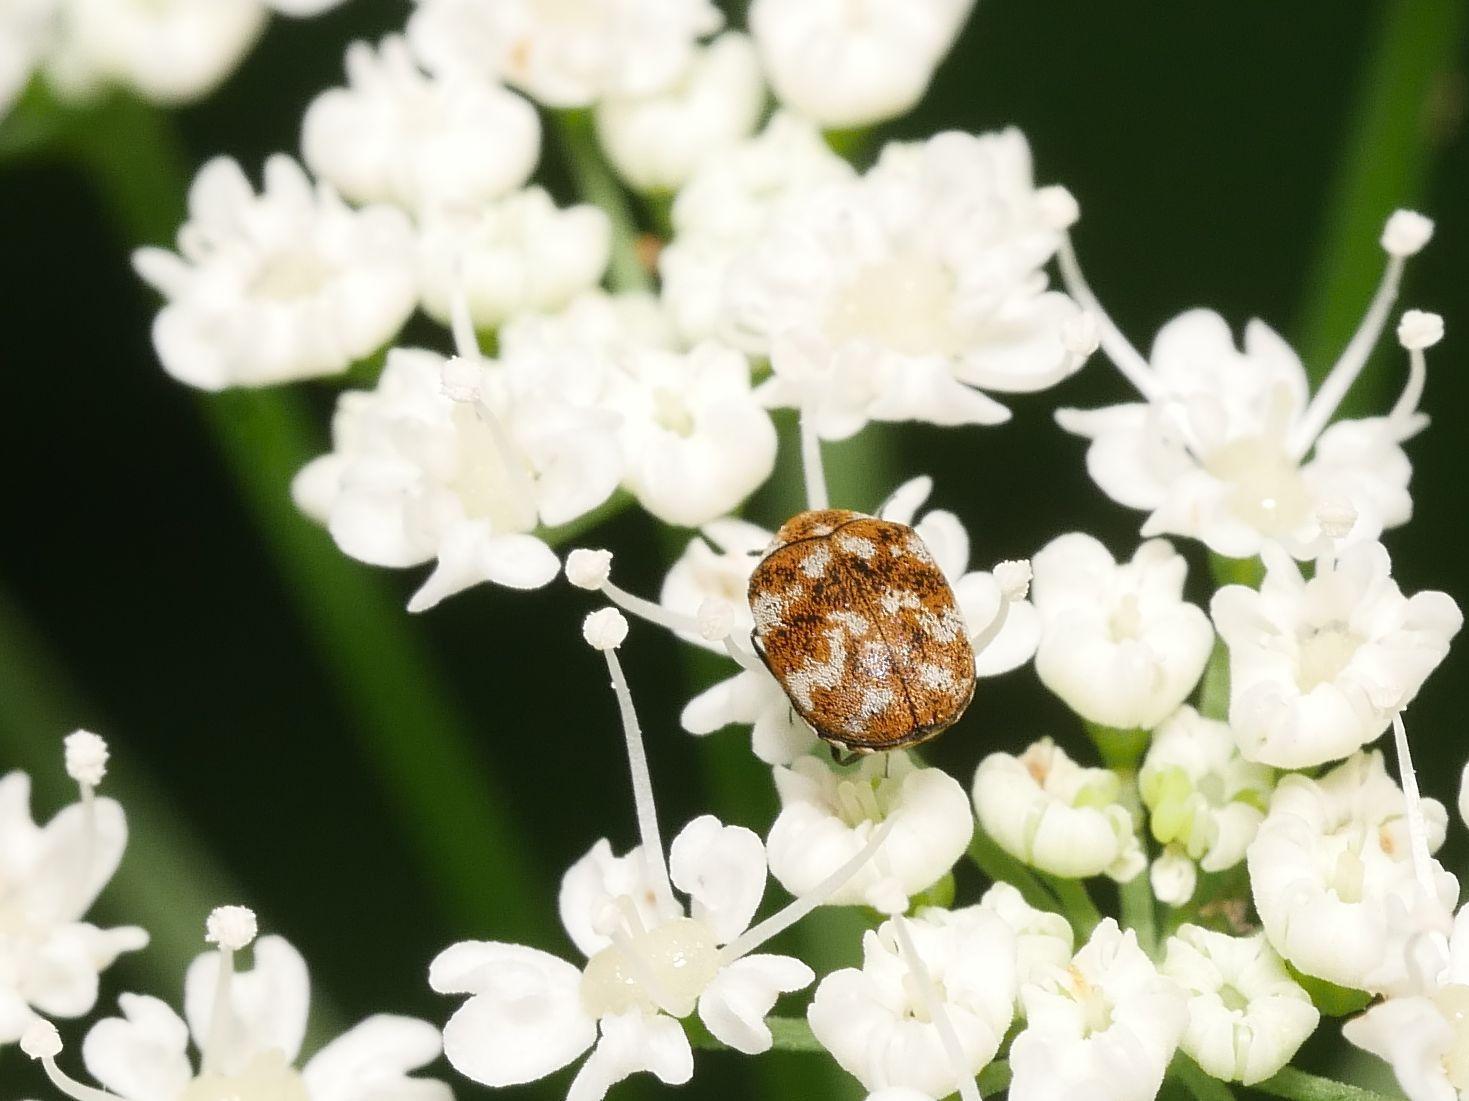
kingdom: Animalia
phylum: Arthropoda
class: Insecta
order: Coleoptera
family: Dermestidae
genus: Anthrenus
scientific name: Anthrenus verbasci
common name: Varied carpet beetle
